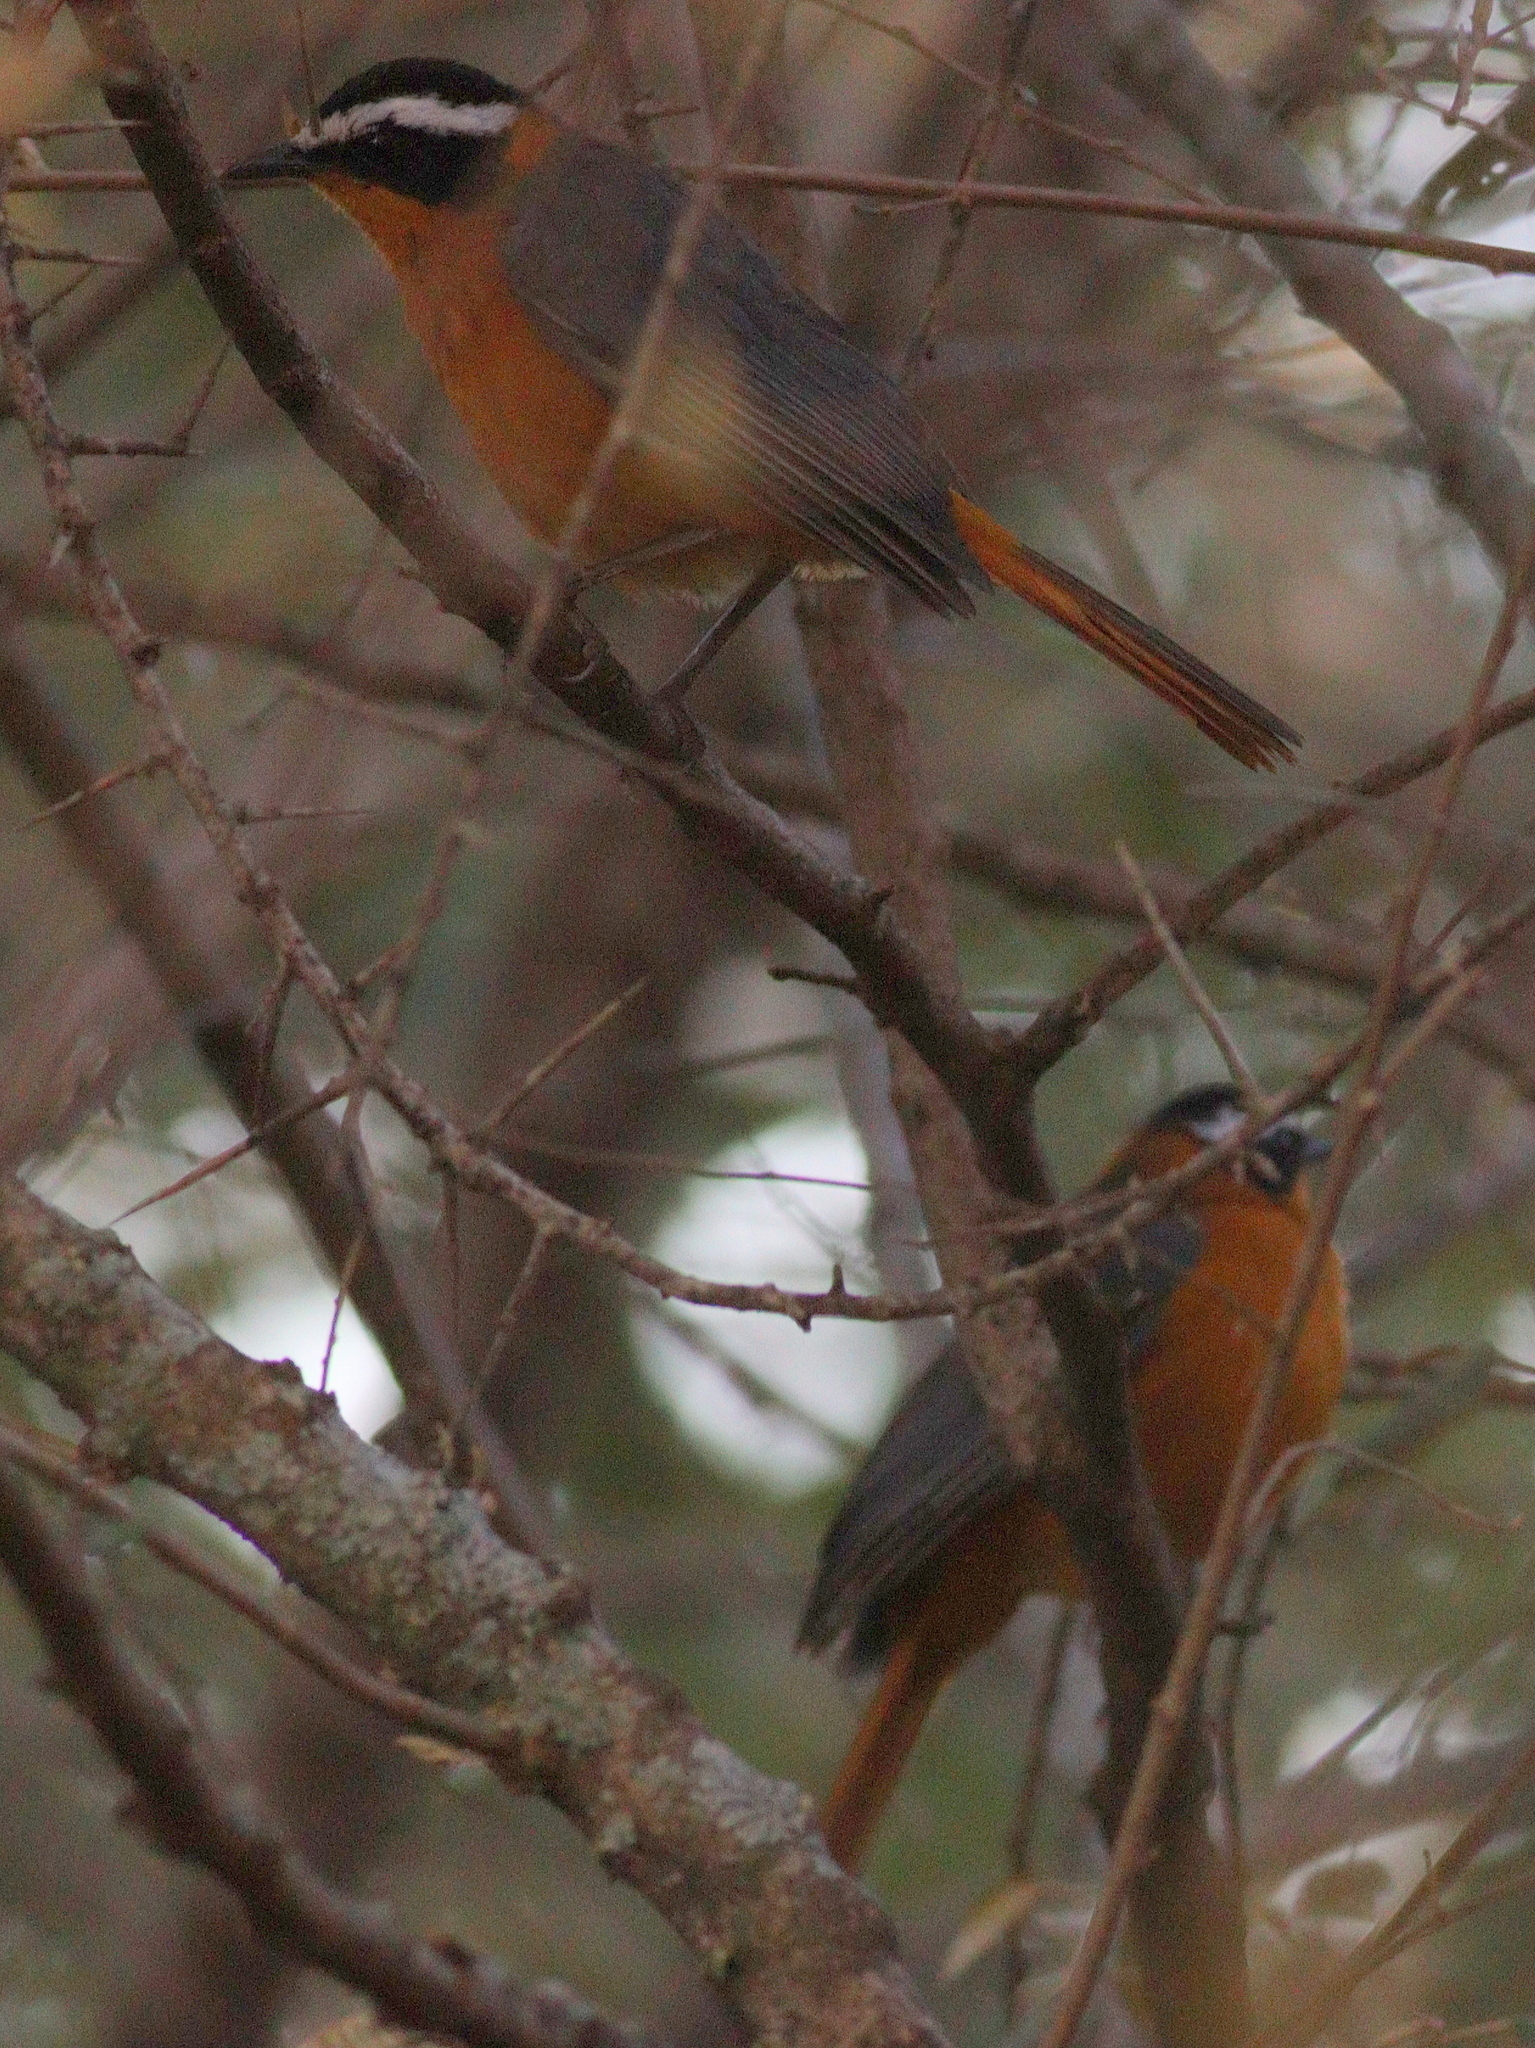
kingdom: Animalia
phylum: Chordata
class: Aves
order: Passeriformes
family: Muscicapidae
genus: Cossypha
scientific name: Cossypha heuglini
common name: White-browed robin-chat
